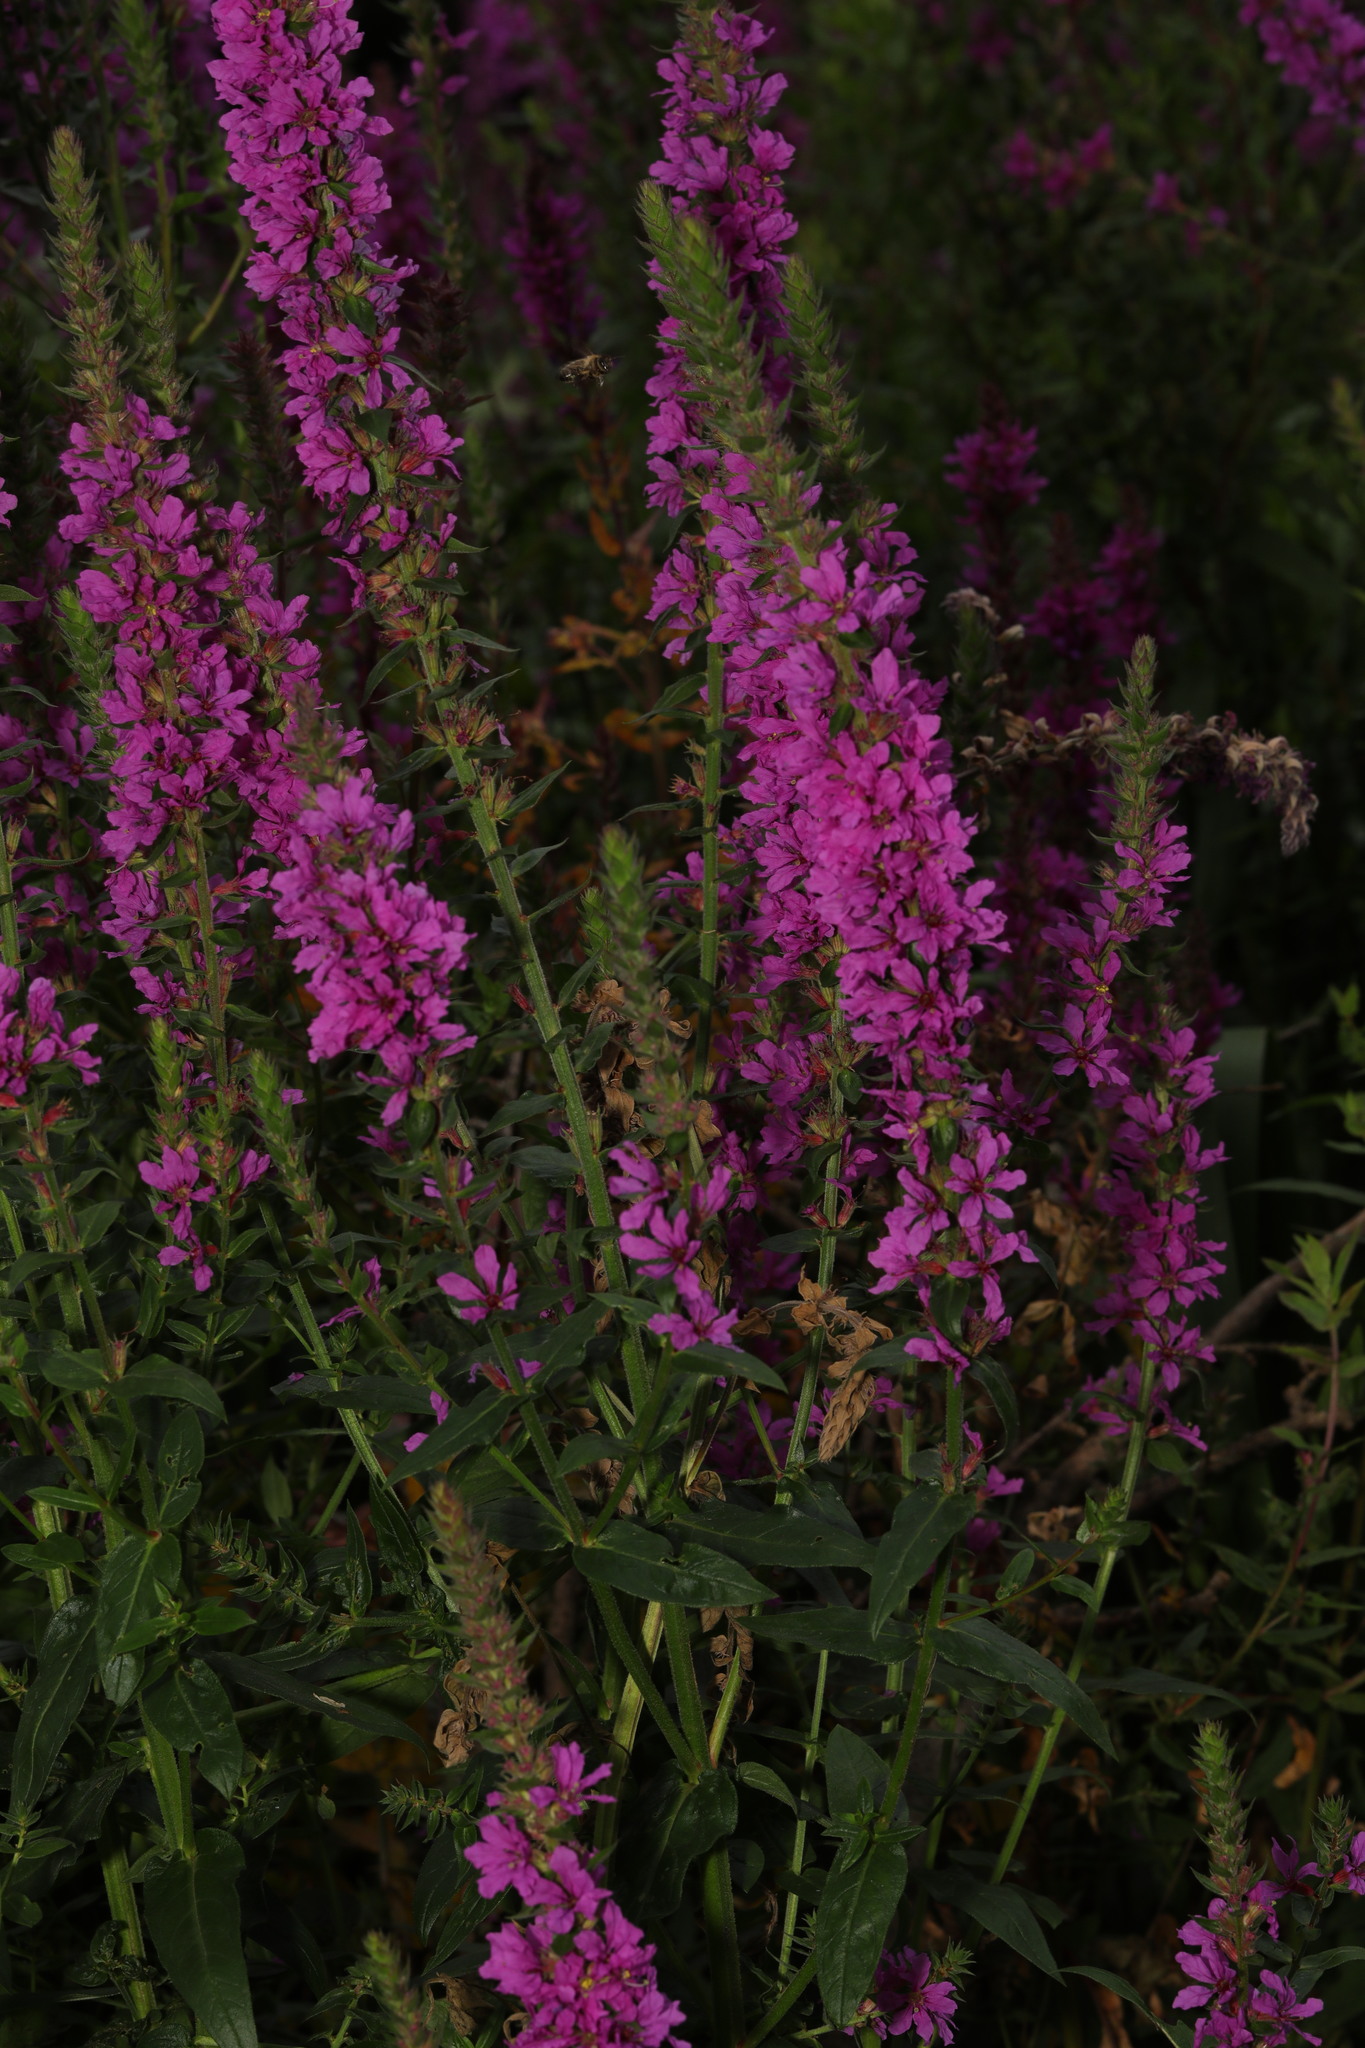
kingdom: Plantae
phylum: Tracheophyta
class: Magnoliopsida
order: Myrtales
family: Lythraceae
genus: Lythrum
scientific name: Lythrum salicaria
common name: Purple loosestrife
